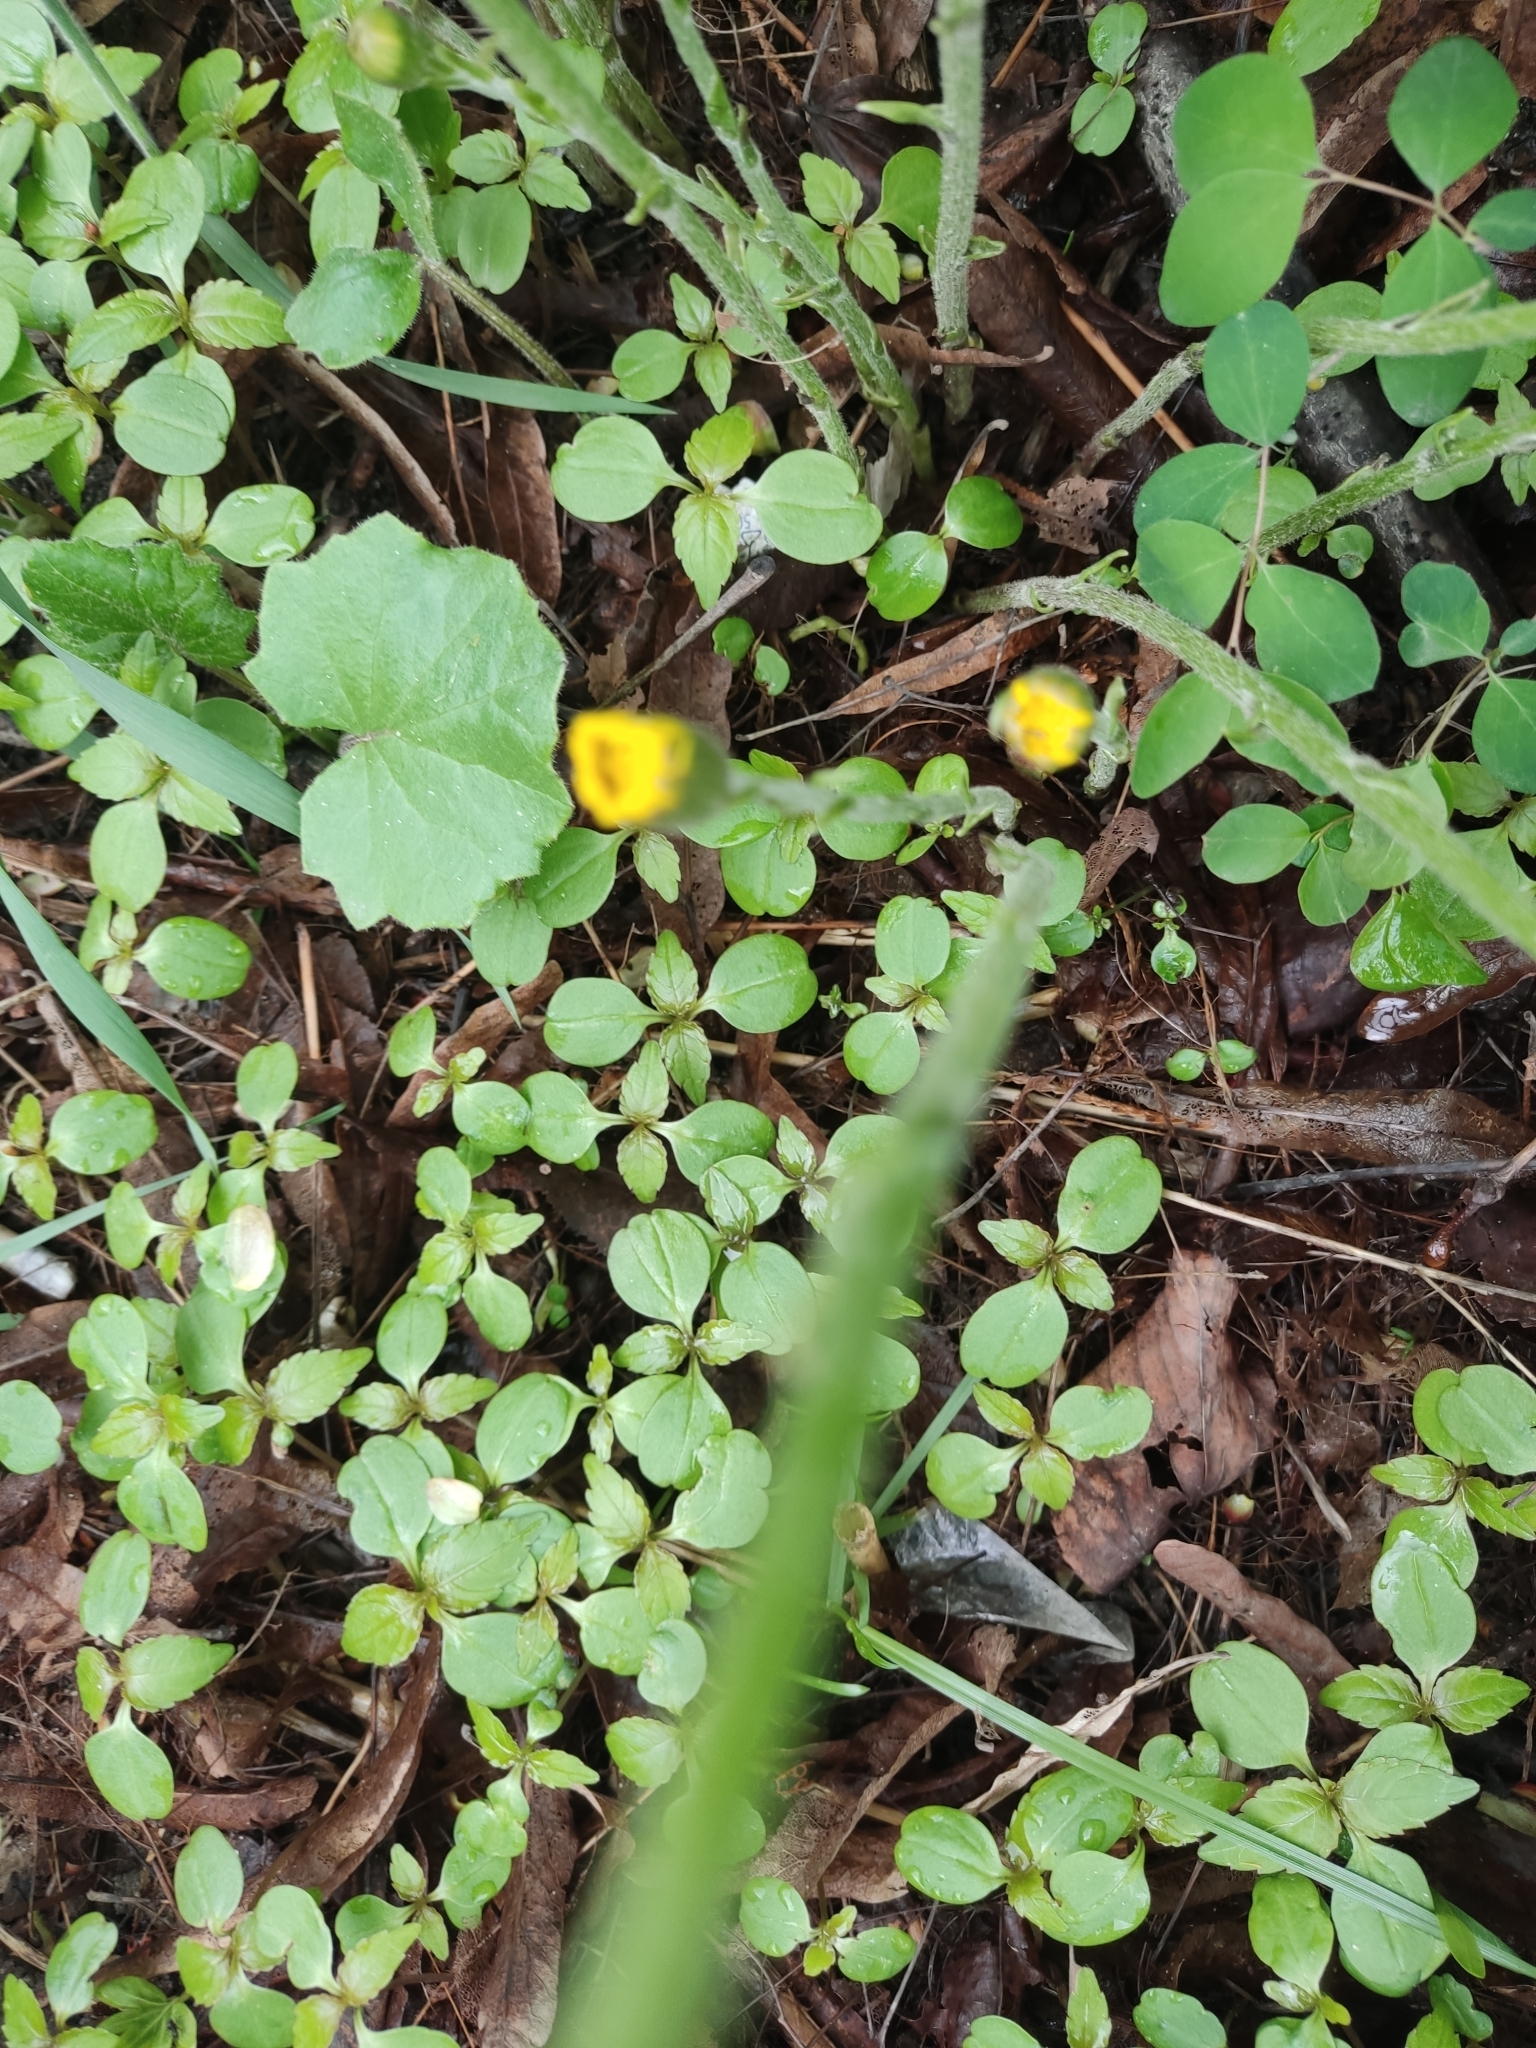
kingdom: Plantae
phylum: Tracheophyta
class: Magnoliopsida
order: Asterales
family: Asteraceae
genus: Tussilago
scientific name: Tussilago farfara
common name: Coltsfoot
